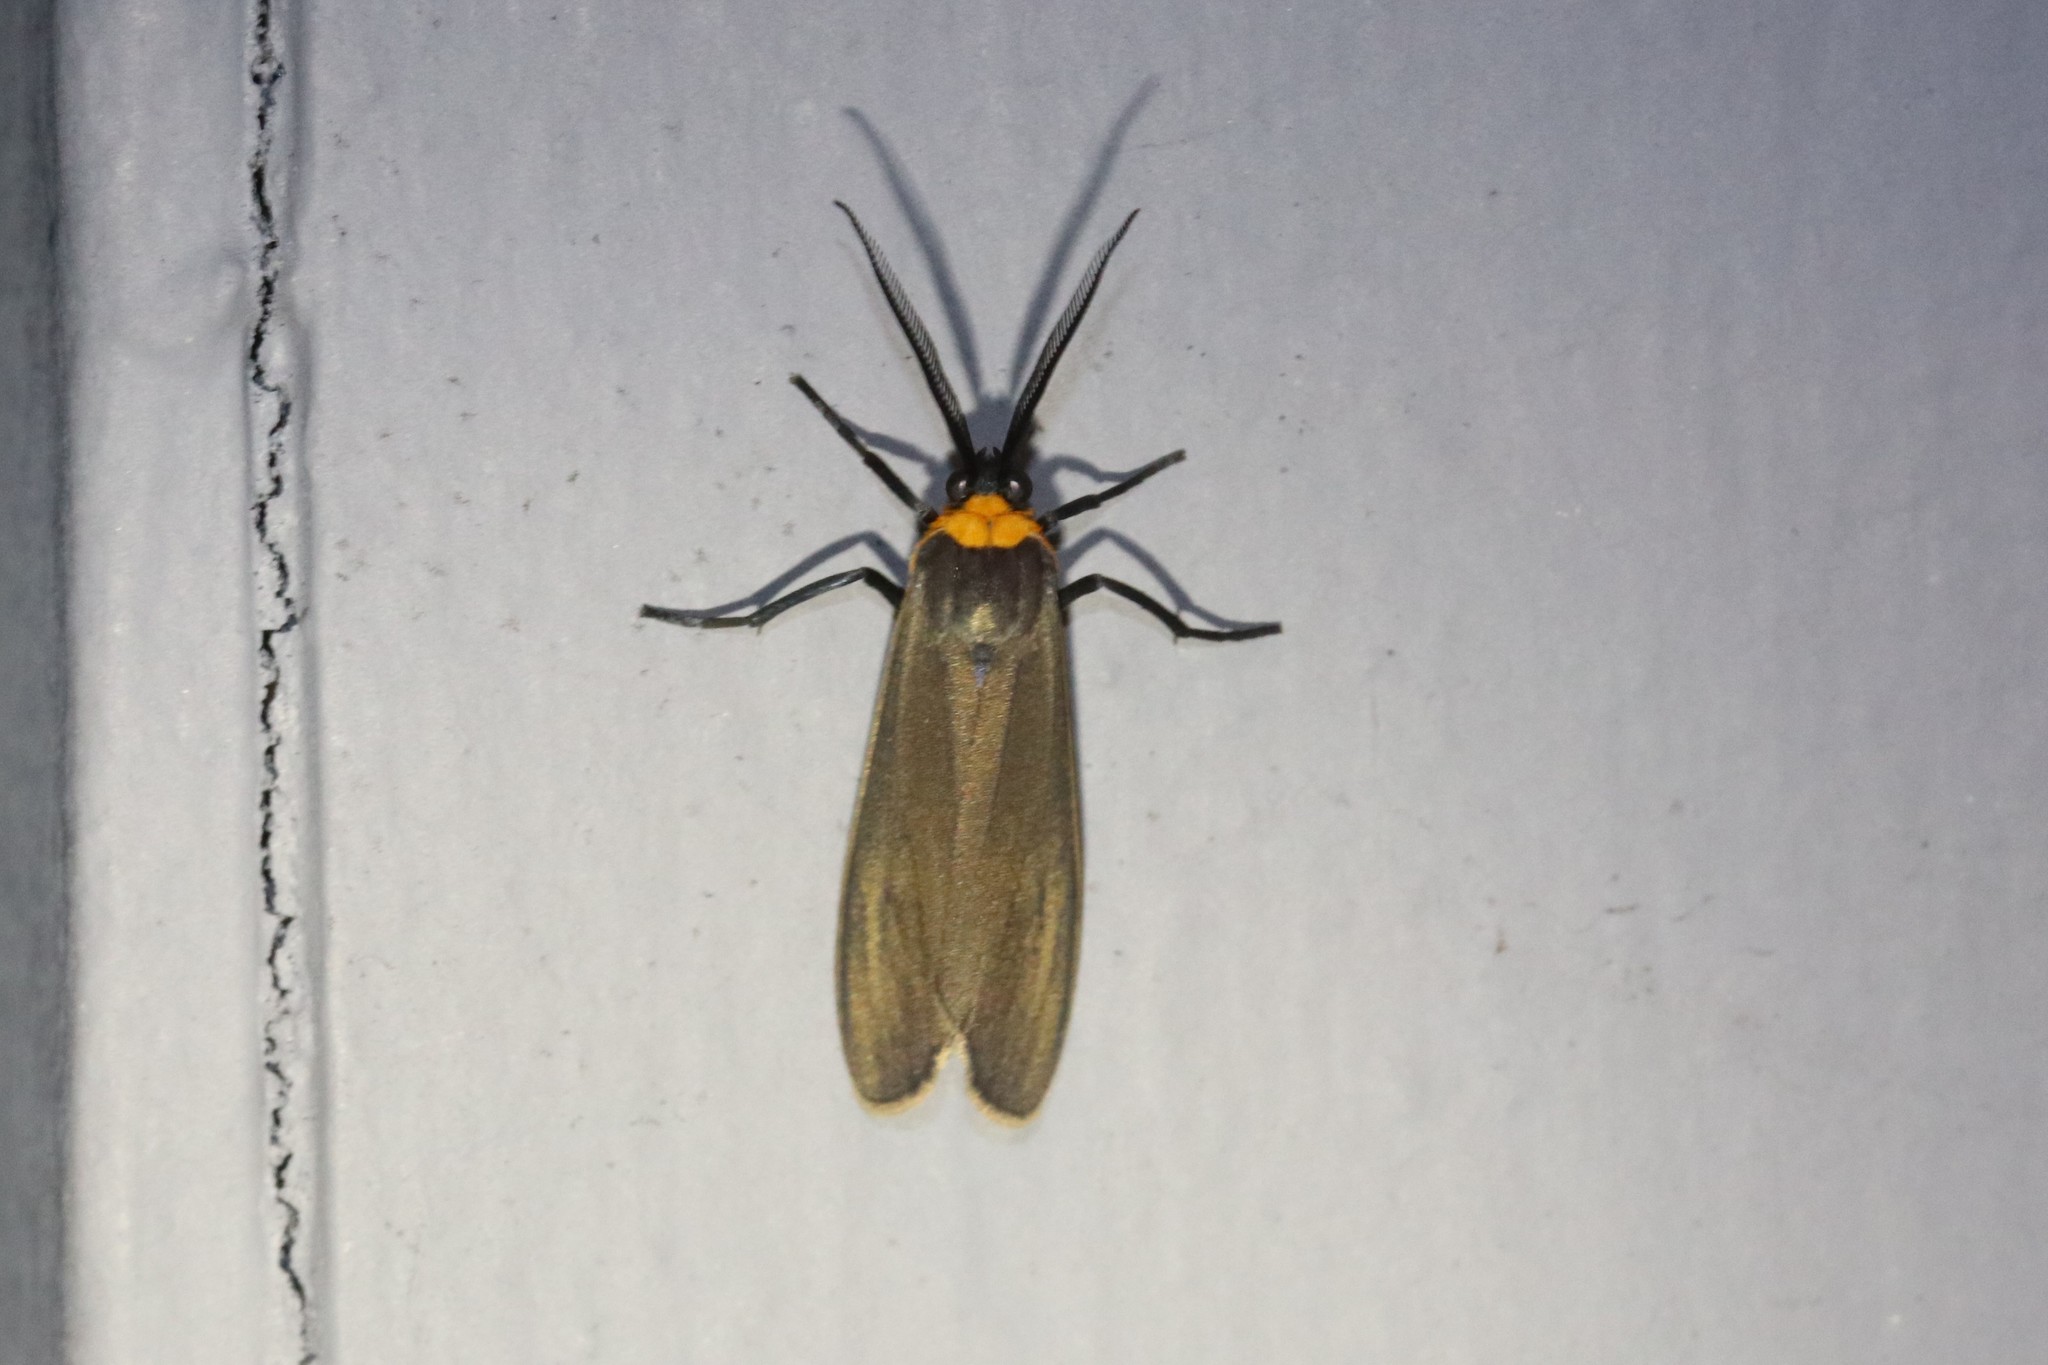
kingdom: Animalia
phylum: Arthropoda
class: Insecta
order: Lepidoptera
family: Erebidae
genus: Cisseps
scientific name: Cisseps fulvicollis
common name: Yellow-collared scape moth
